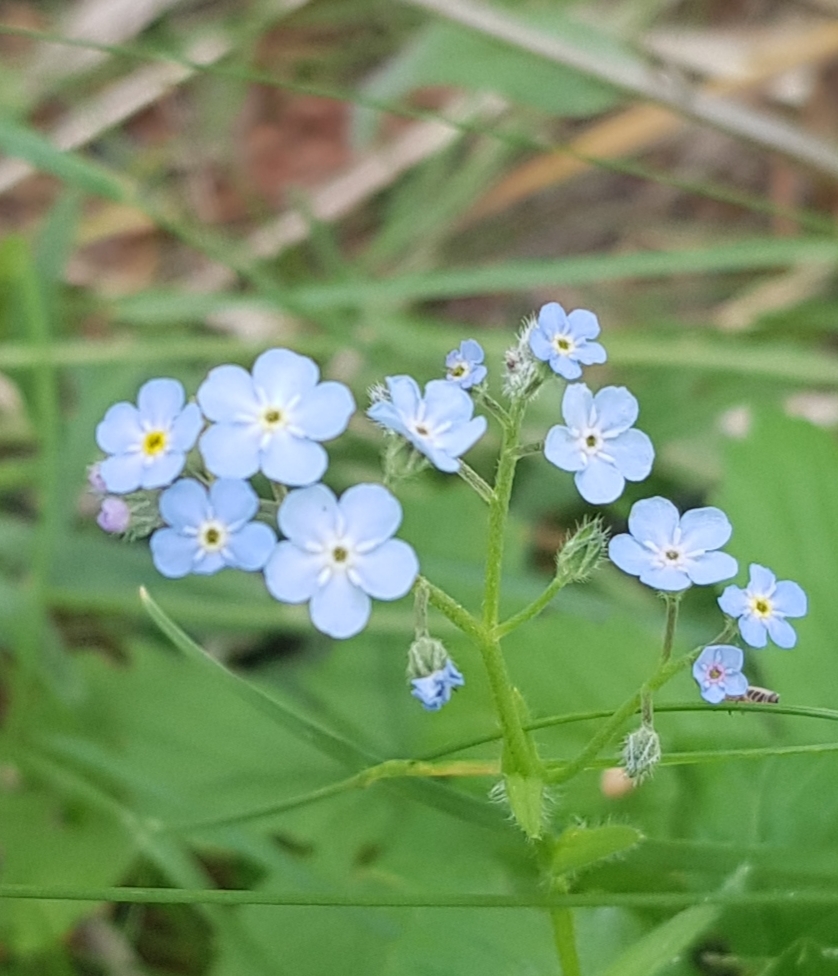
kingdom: Plantae
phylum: Tracheophyta
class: Magnoliopsida
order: Boraginales
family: Boraginaceae
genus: Myosotis
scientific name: Myosotis sylvatica
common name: Wood forget-me-not
